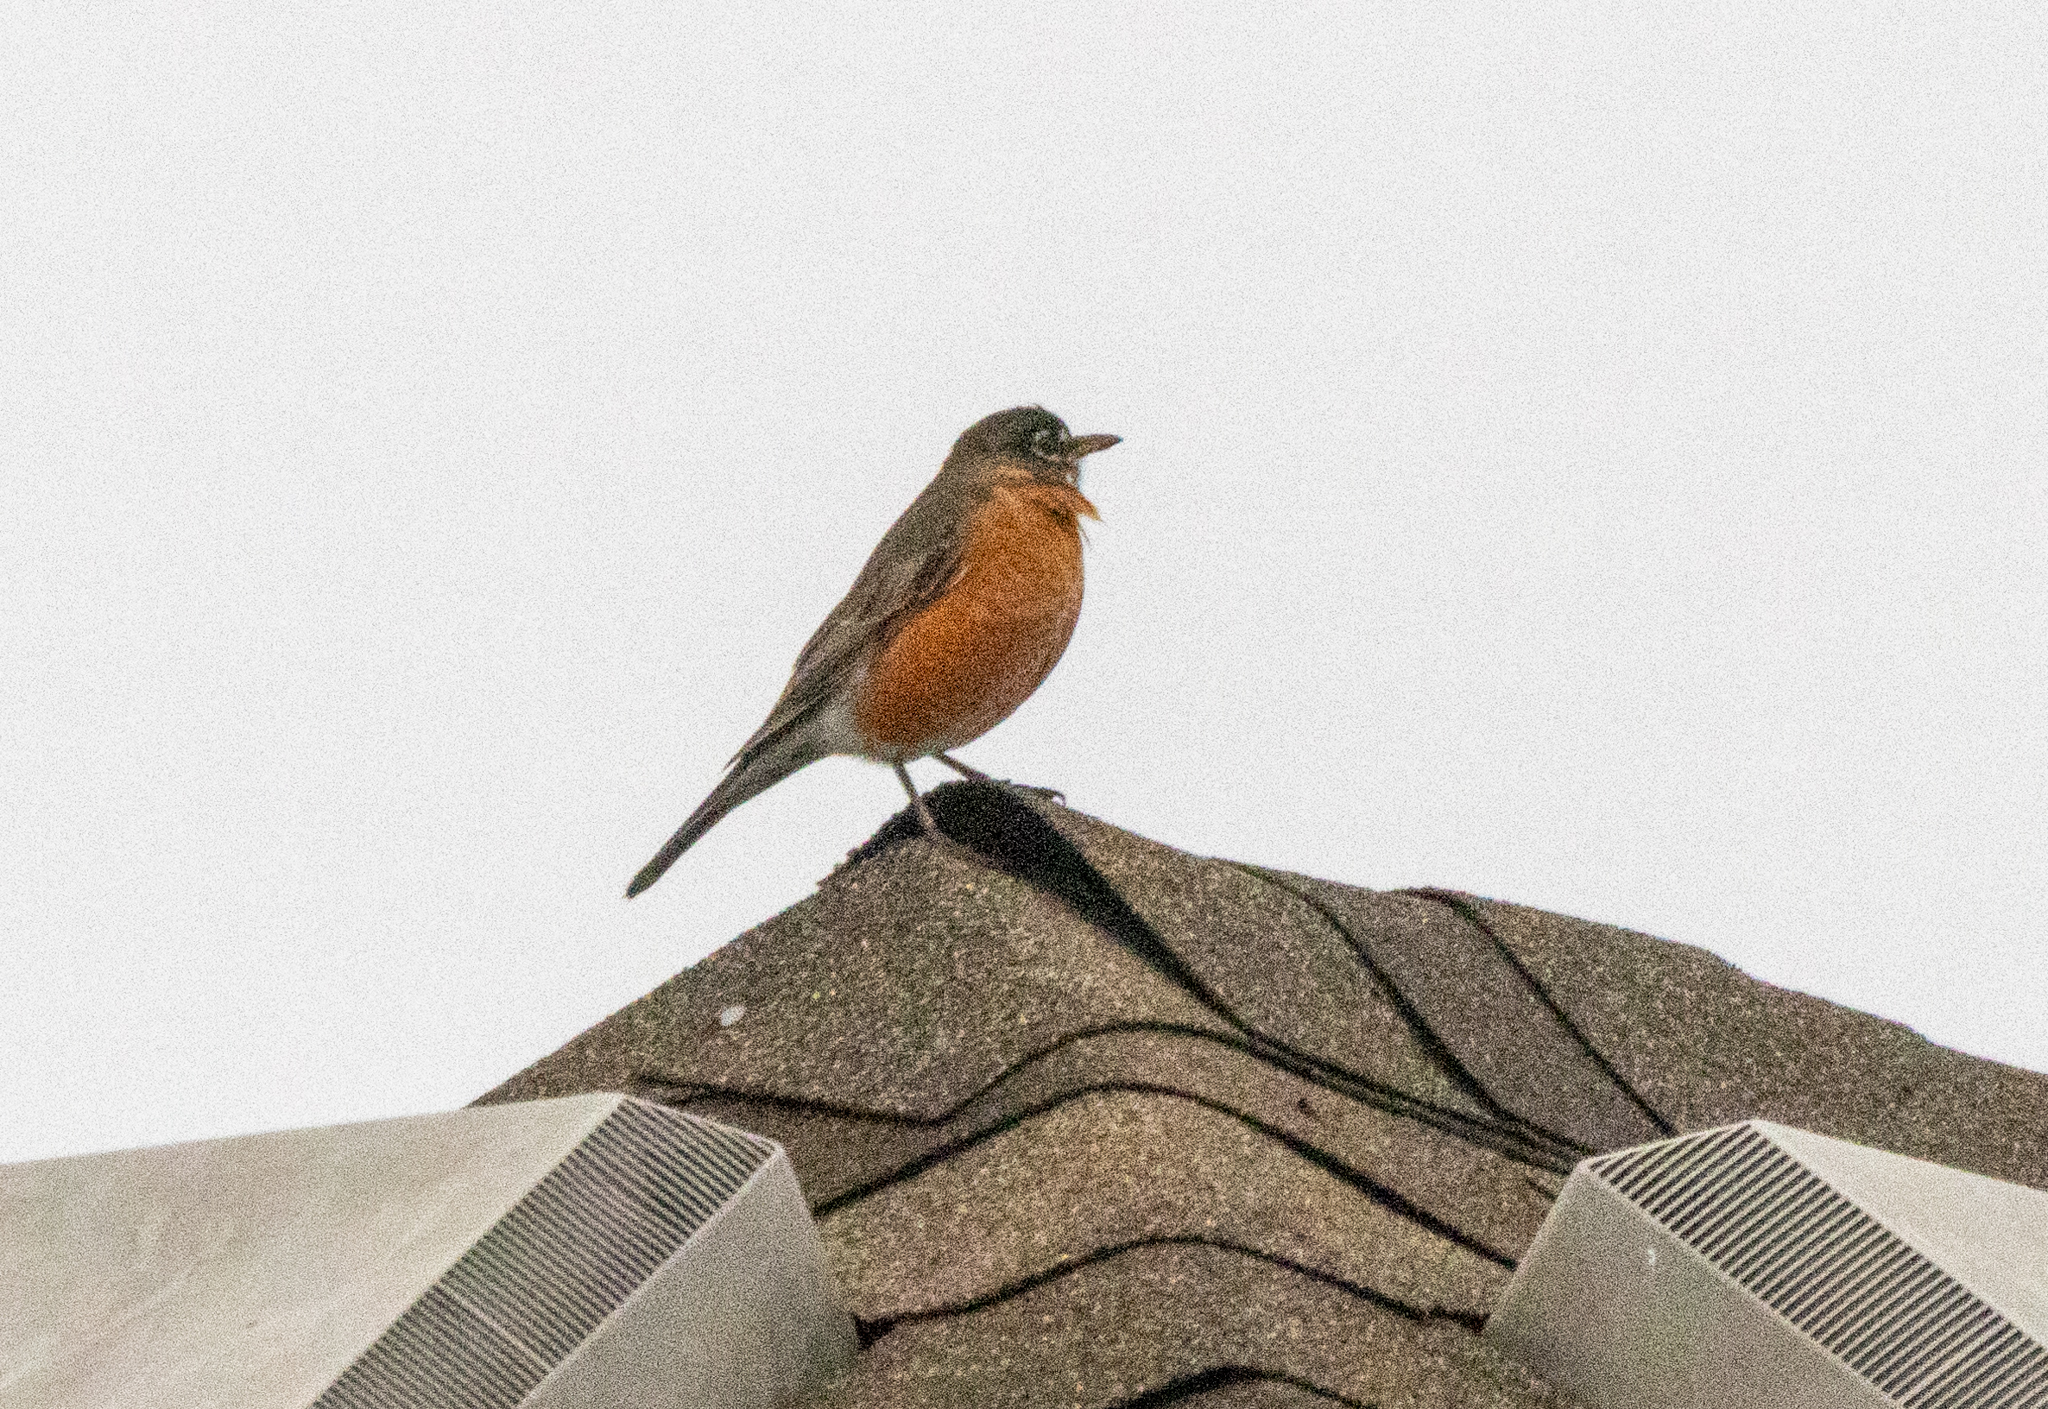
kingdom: Animalia
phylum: Chordata
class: Aves
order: Passeriformes
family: Turdidae
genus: Turdus
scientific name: Turdus migratorius
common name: American robin
